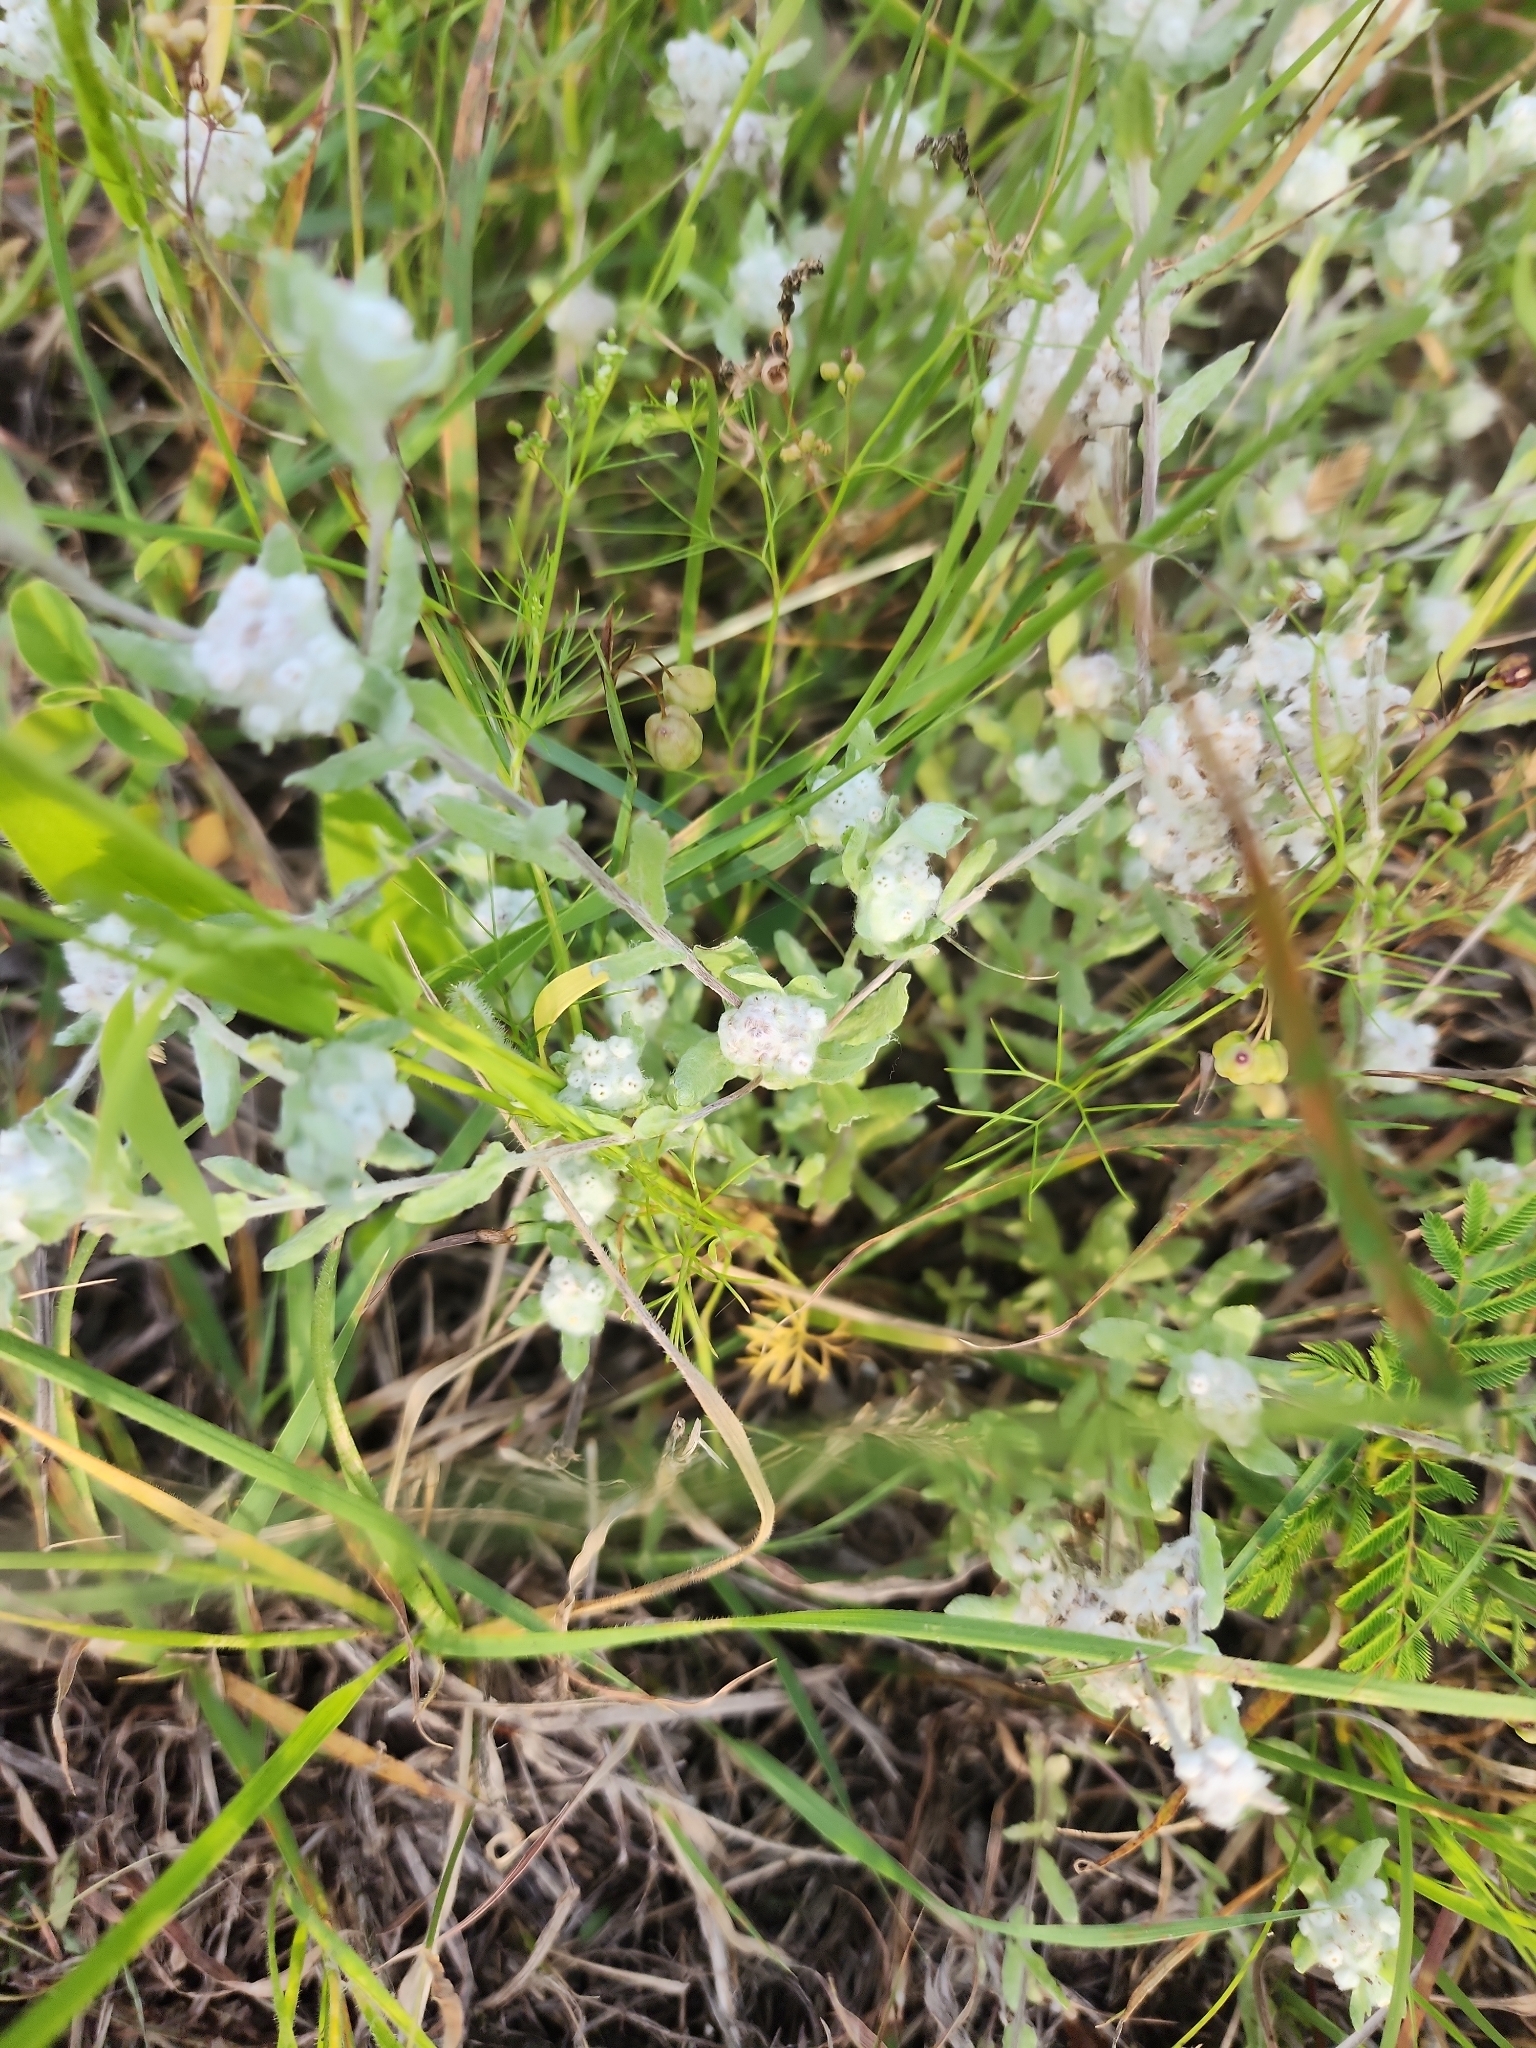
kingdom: Plantae
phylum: Tracheophyta
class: Magnoliopsida
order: Asterales
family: Asteraceae
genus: Diaperia
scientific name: Diaperia verna
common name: Many-stem rabbit-tobacco
